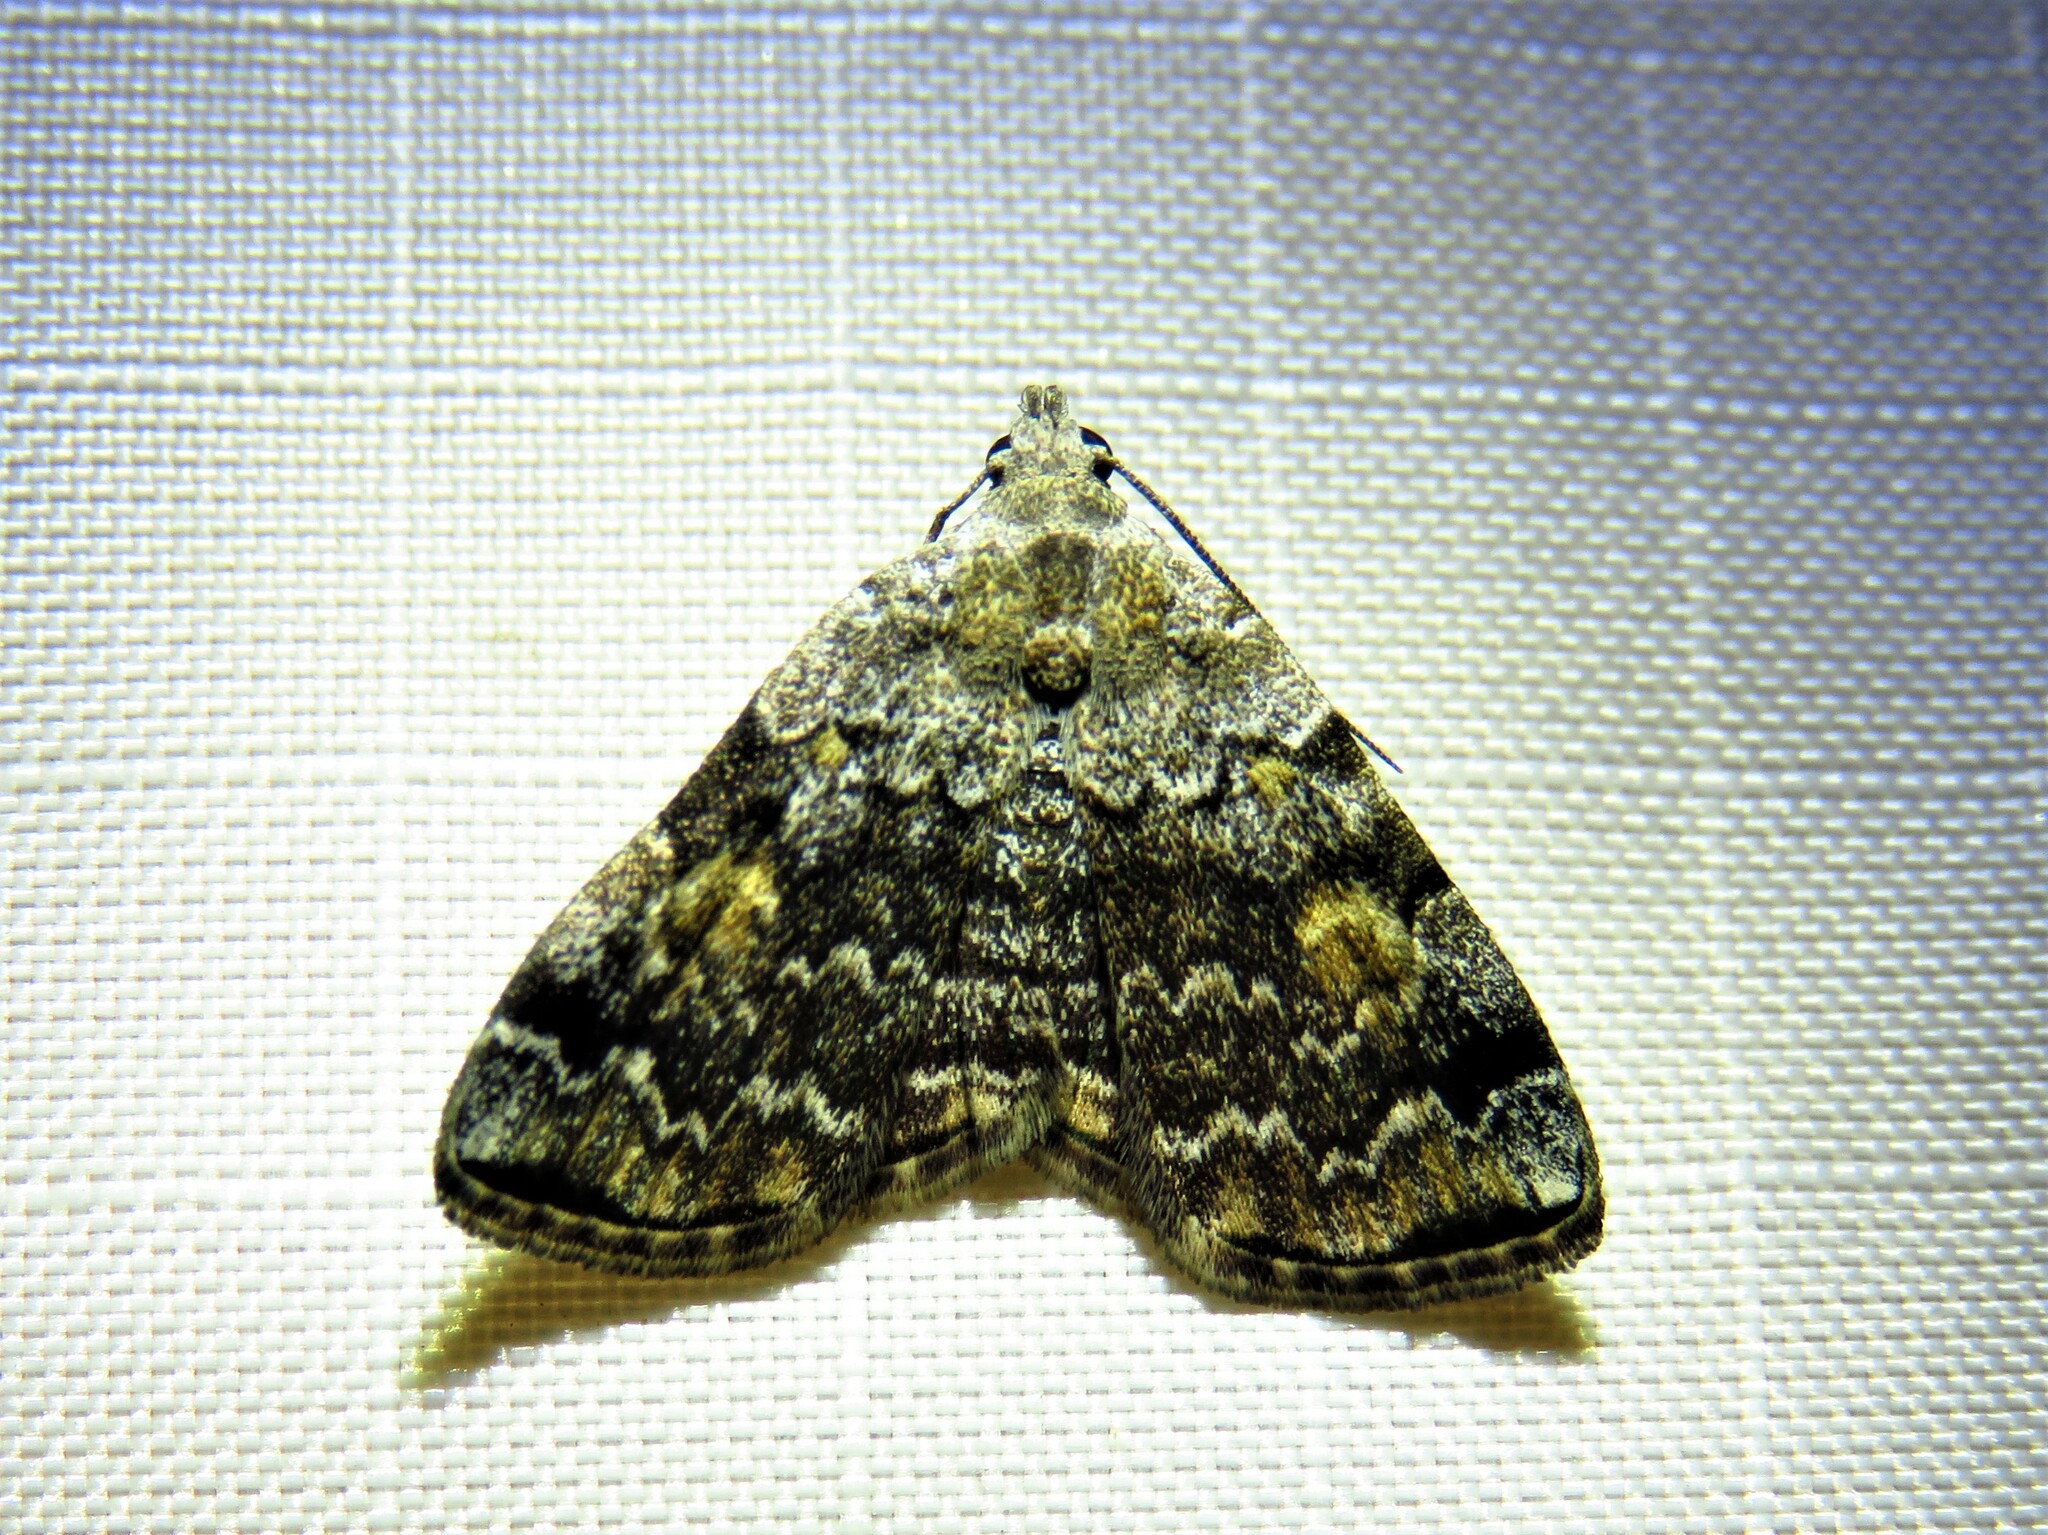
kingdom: Animalia
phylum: Arthropoda
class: Insecta
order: Lepidoptera
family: Erebidae
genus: Idia
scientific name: Idia americalis
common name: American idia moth
